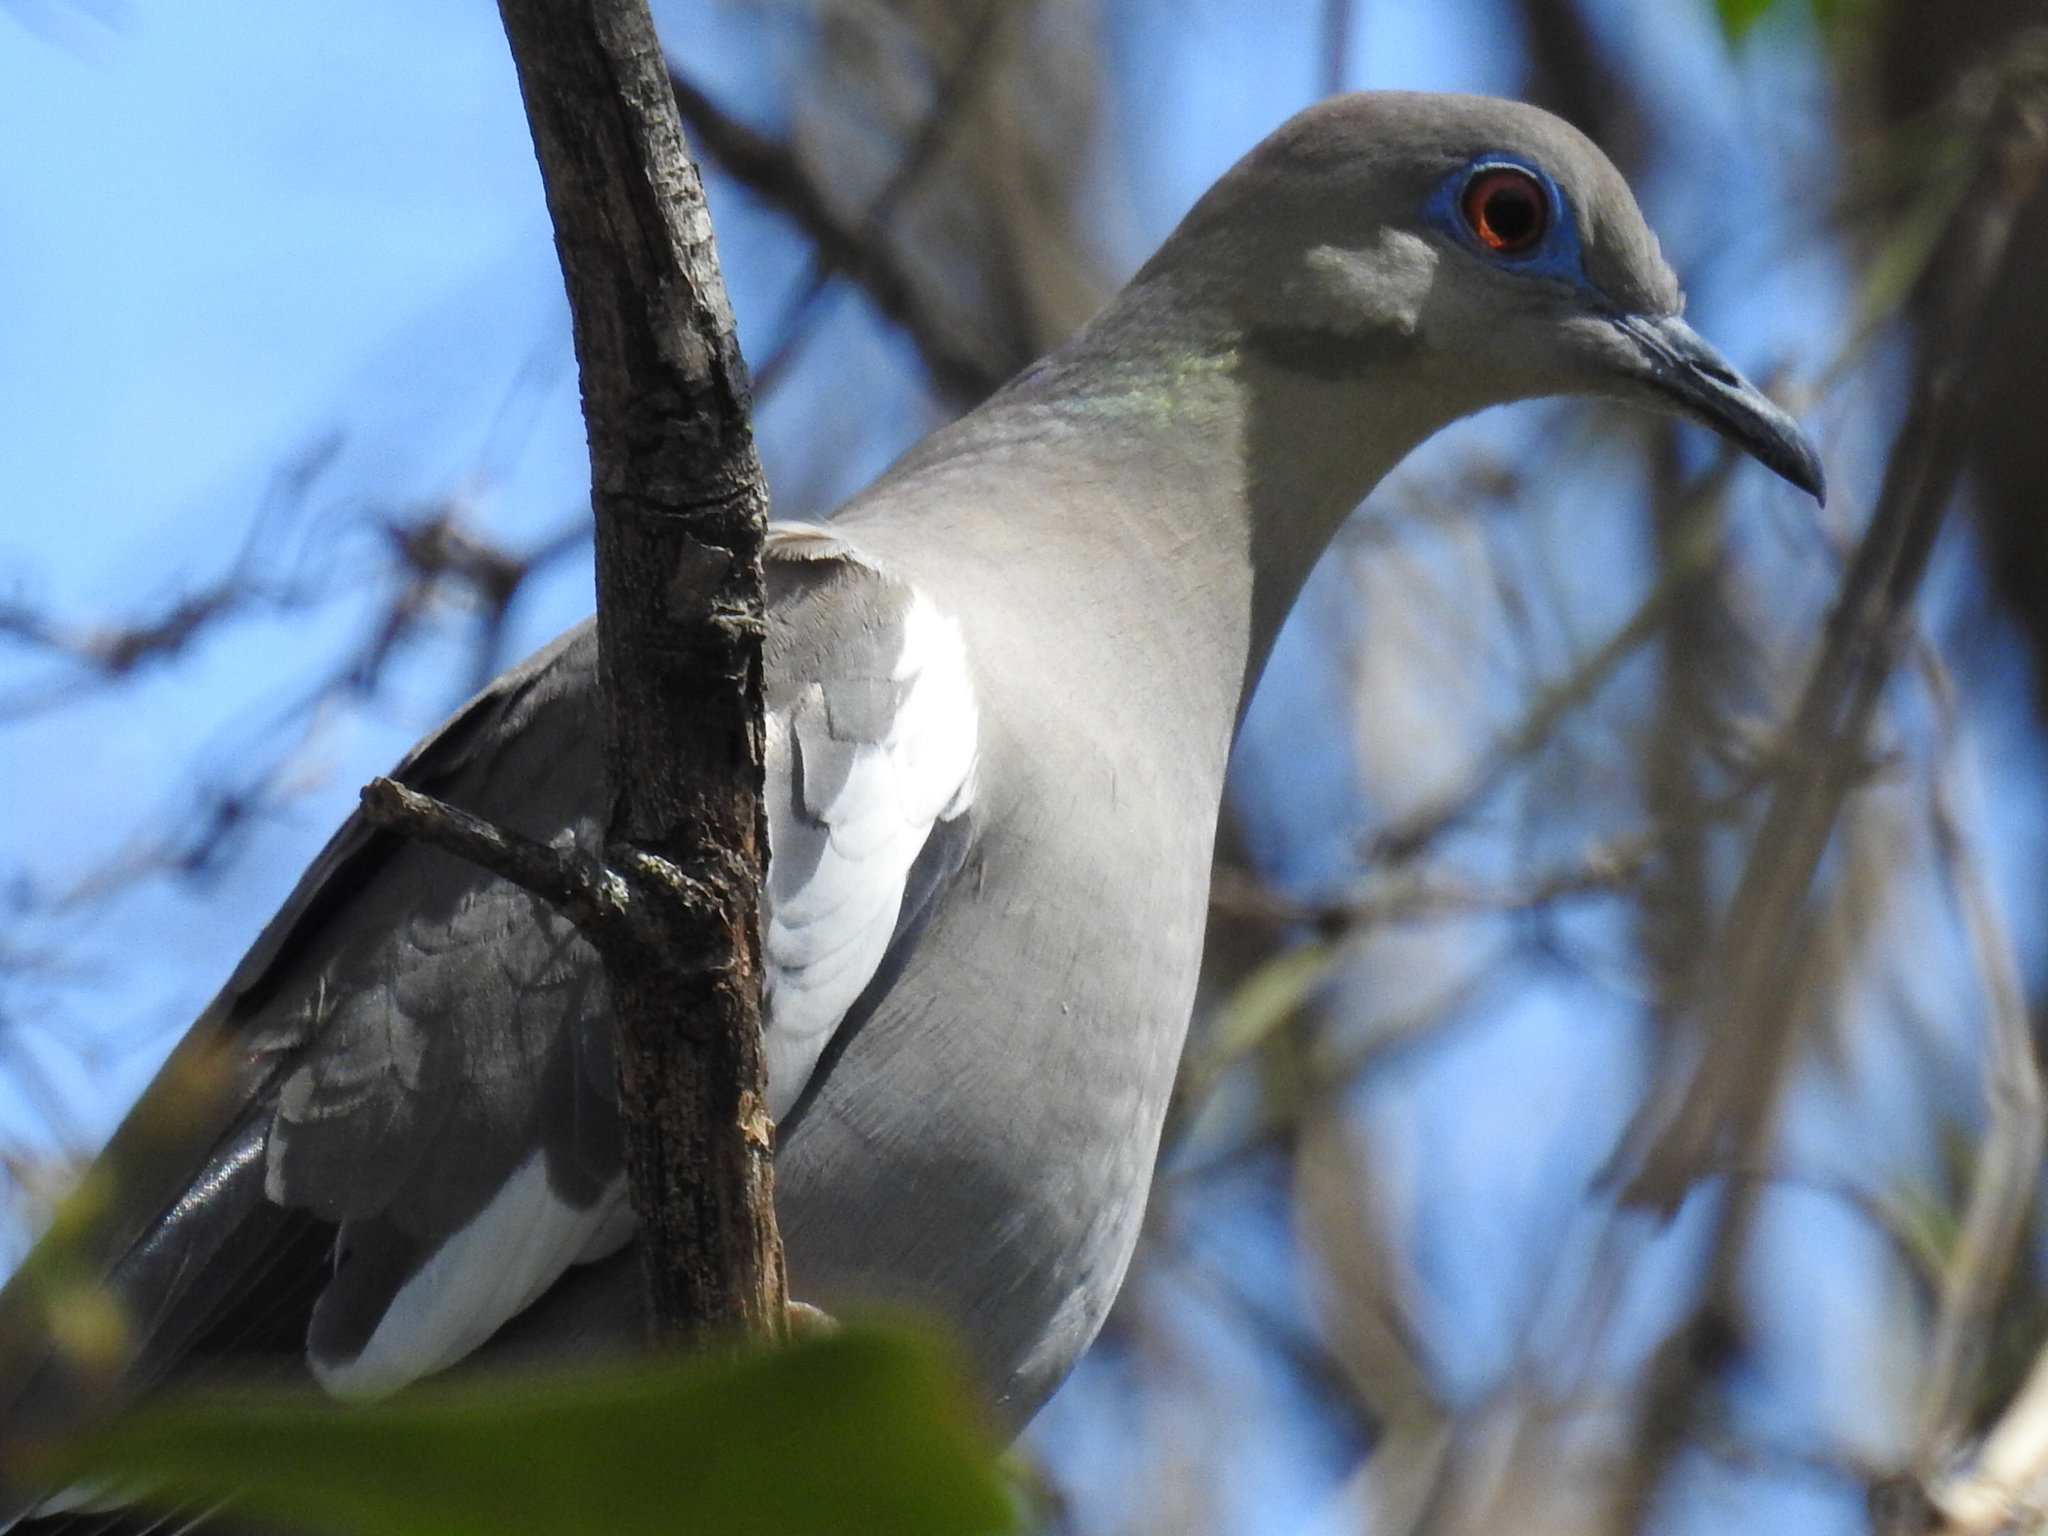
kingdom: Animalia
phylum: Chordata
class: Aves
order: Columbiformes
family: Columbidae
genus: Zenaida
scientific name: Zenaida asiatica
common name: White-winged dove
